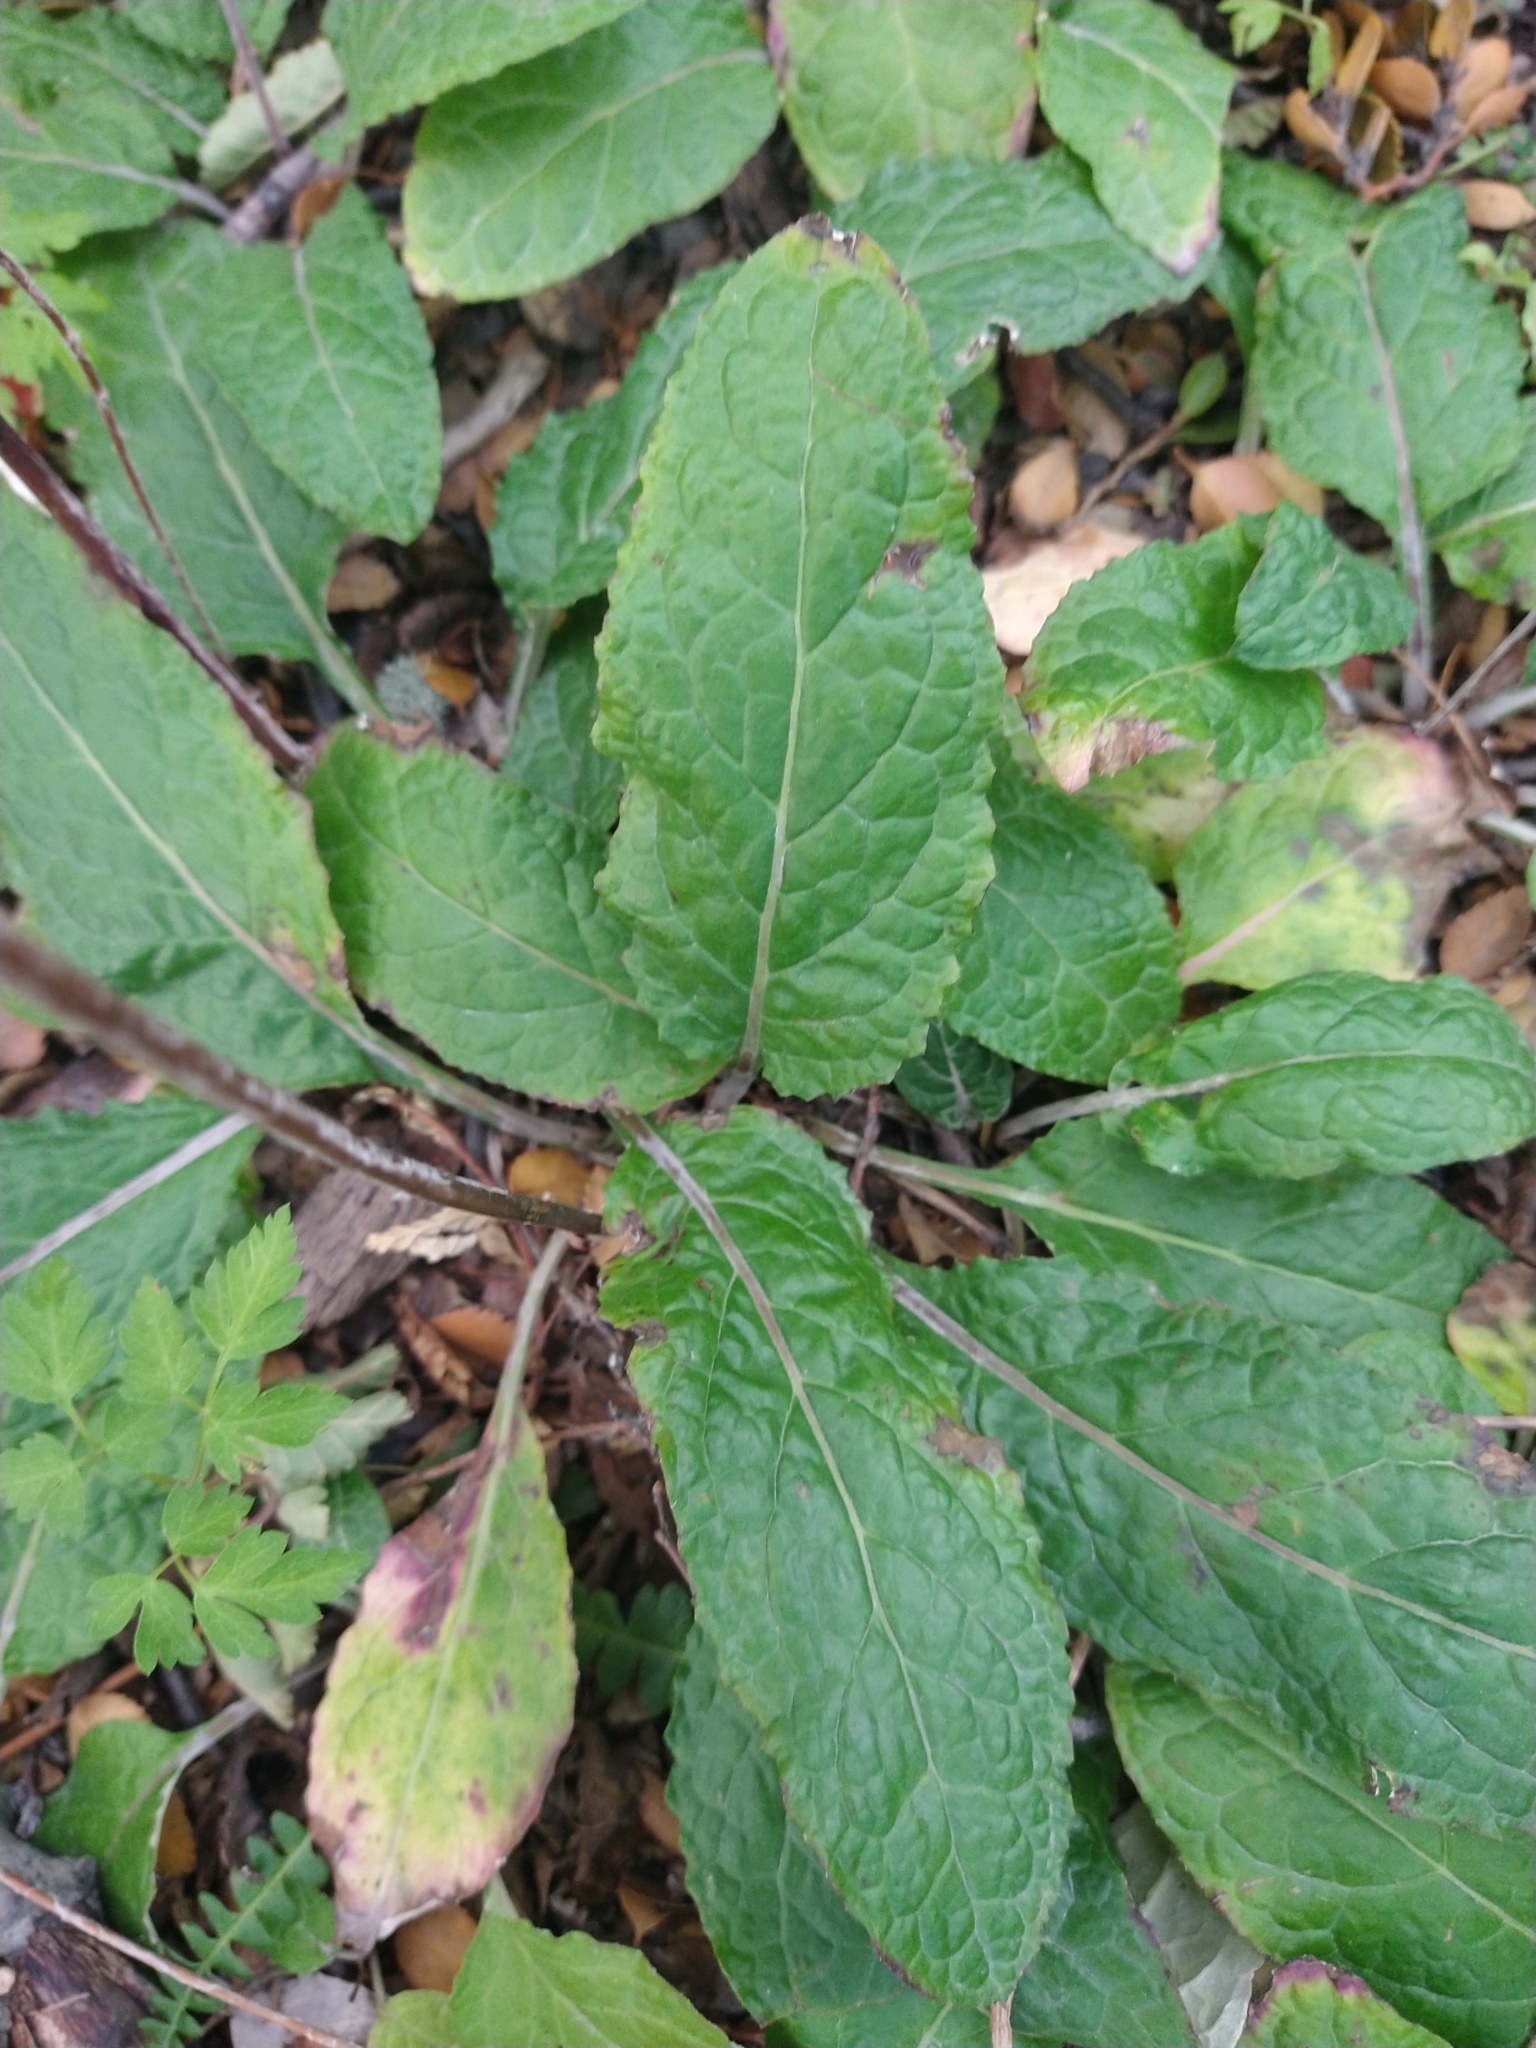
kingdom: Plantae
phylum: Tracheophyta
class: Magnoliopsida
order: Asterales
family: Asteraceae
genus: Adenocaulon
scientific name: Adenocaulon chilense
